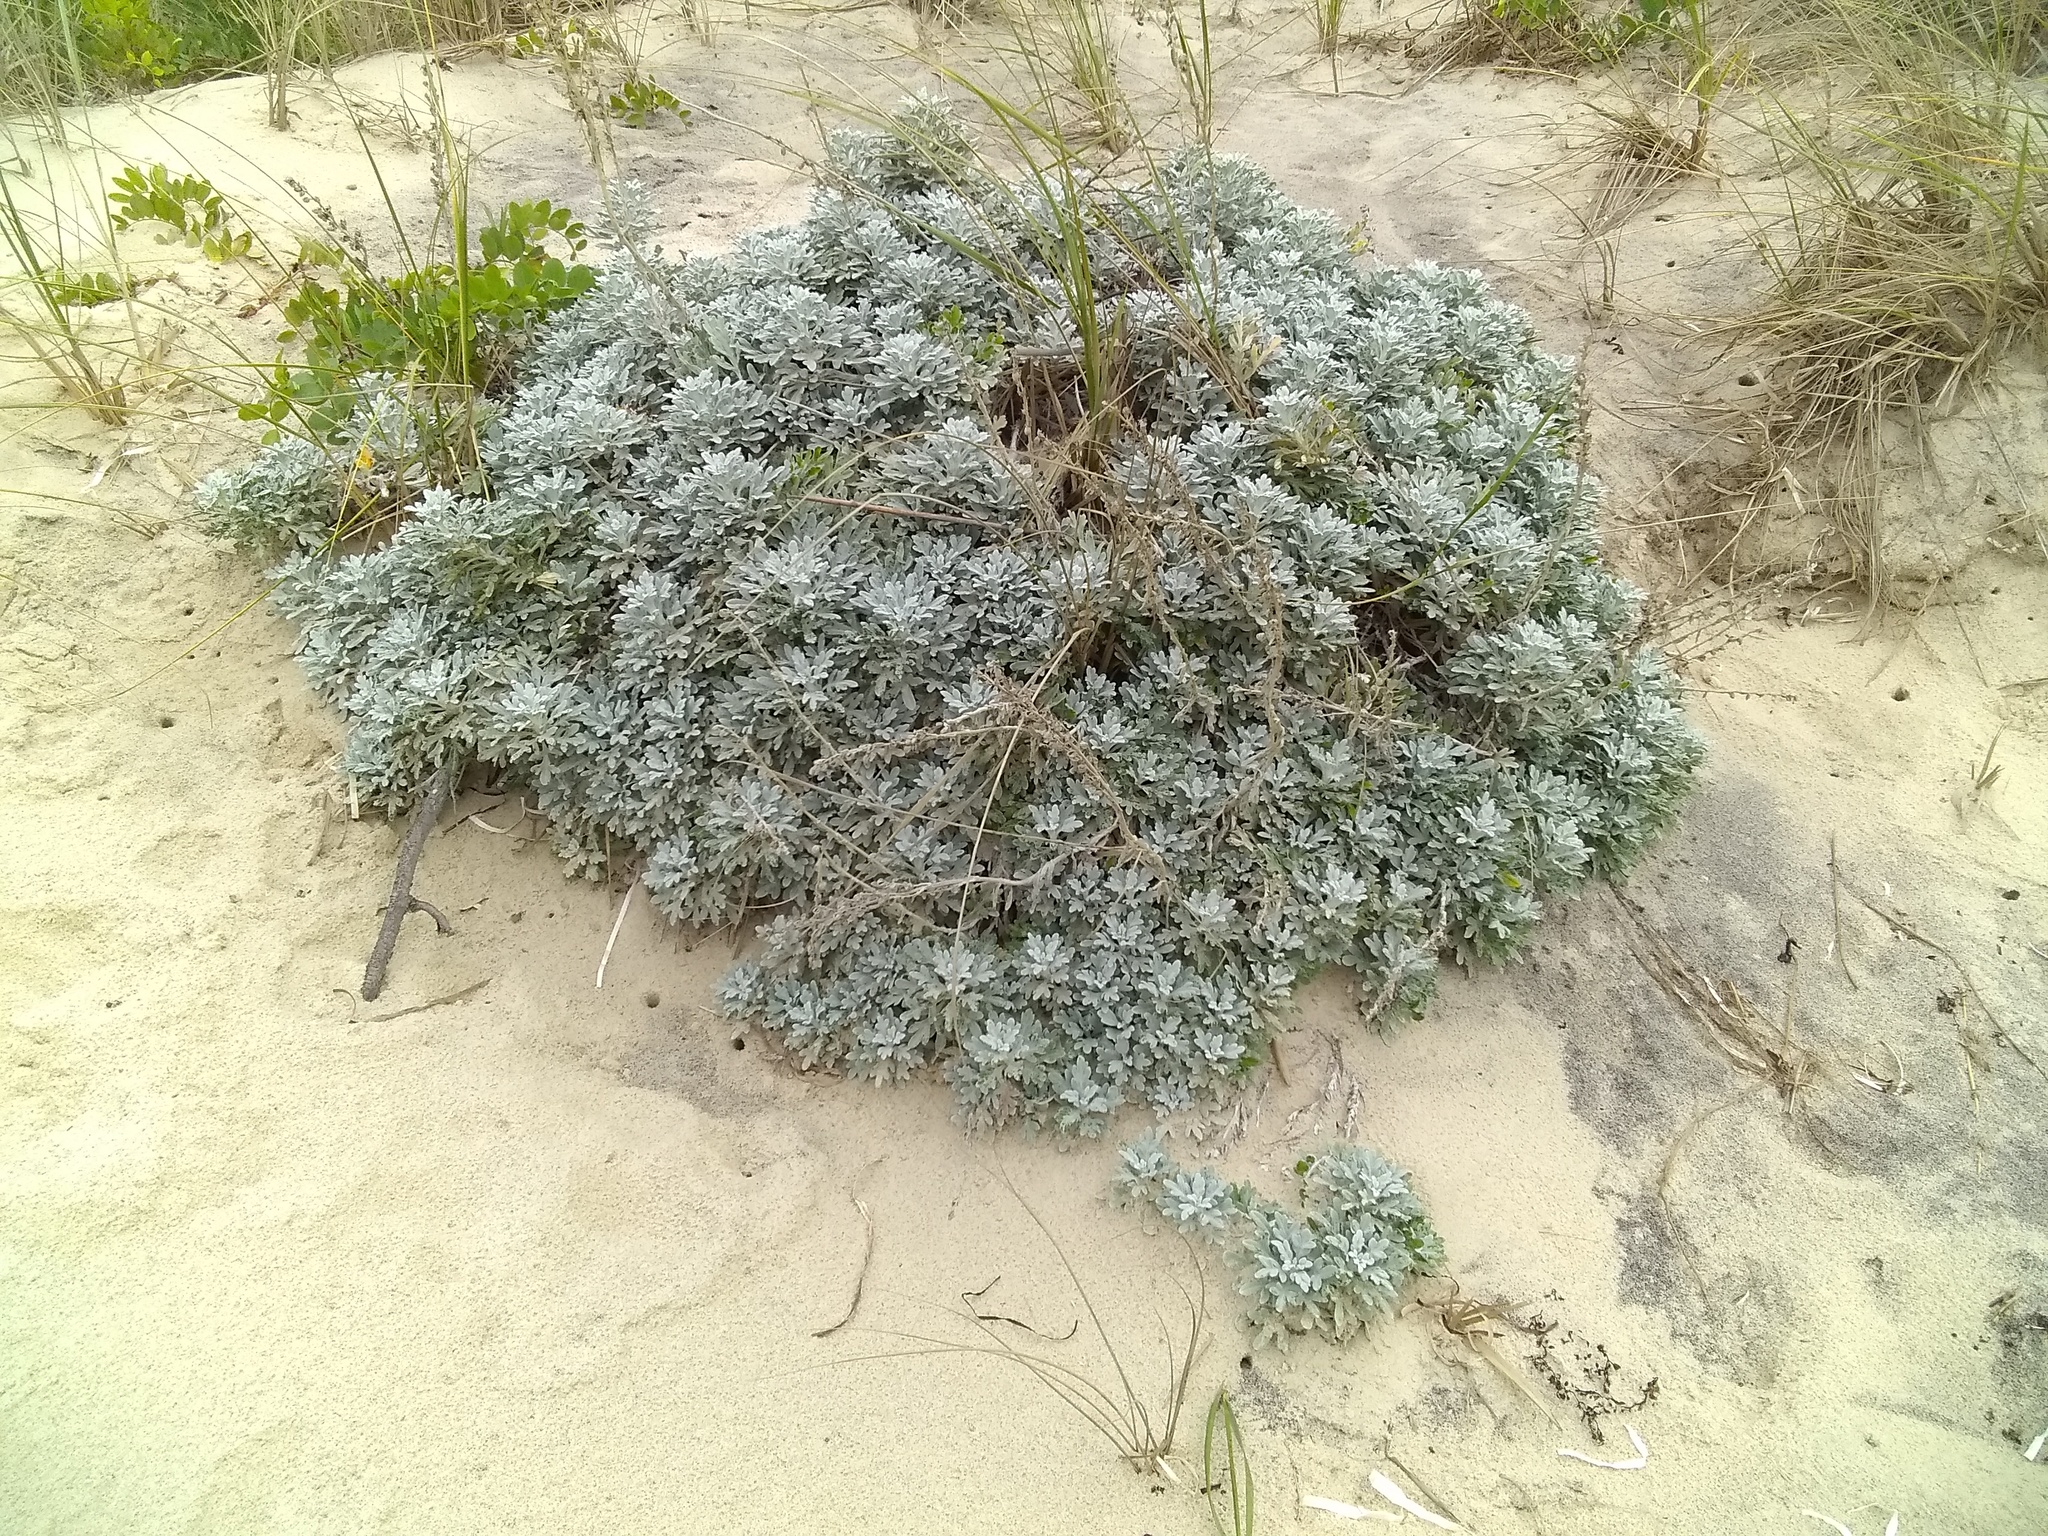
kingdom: Plantae
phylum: Tracheophyta
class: Magnoliopsida
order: Asterales
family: Asteraceae
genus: Artemisia
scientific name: Artemisia stelleriana
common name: Beach wormwood
